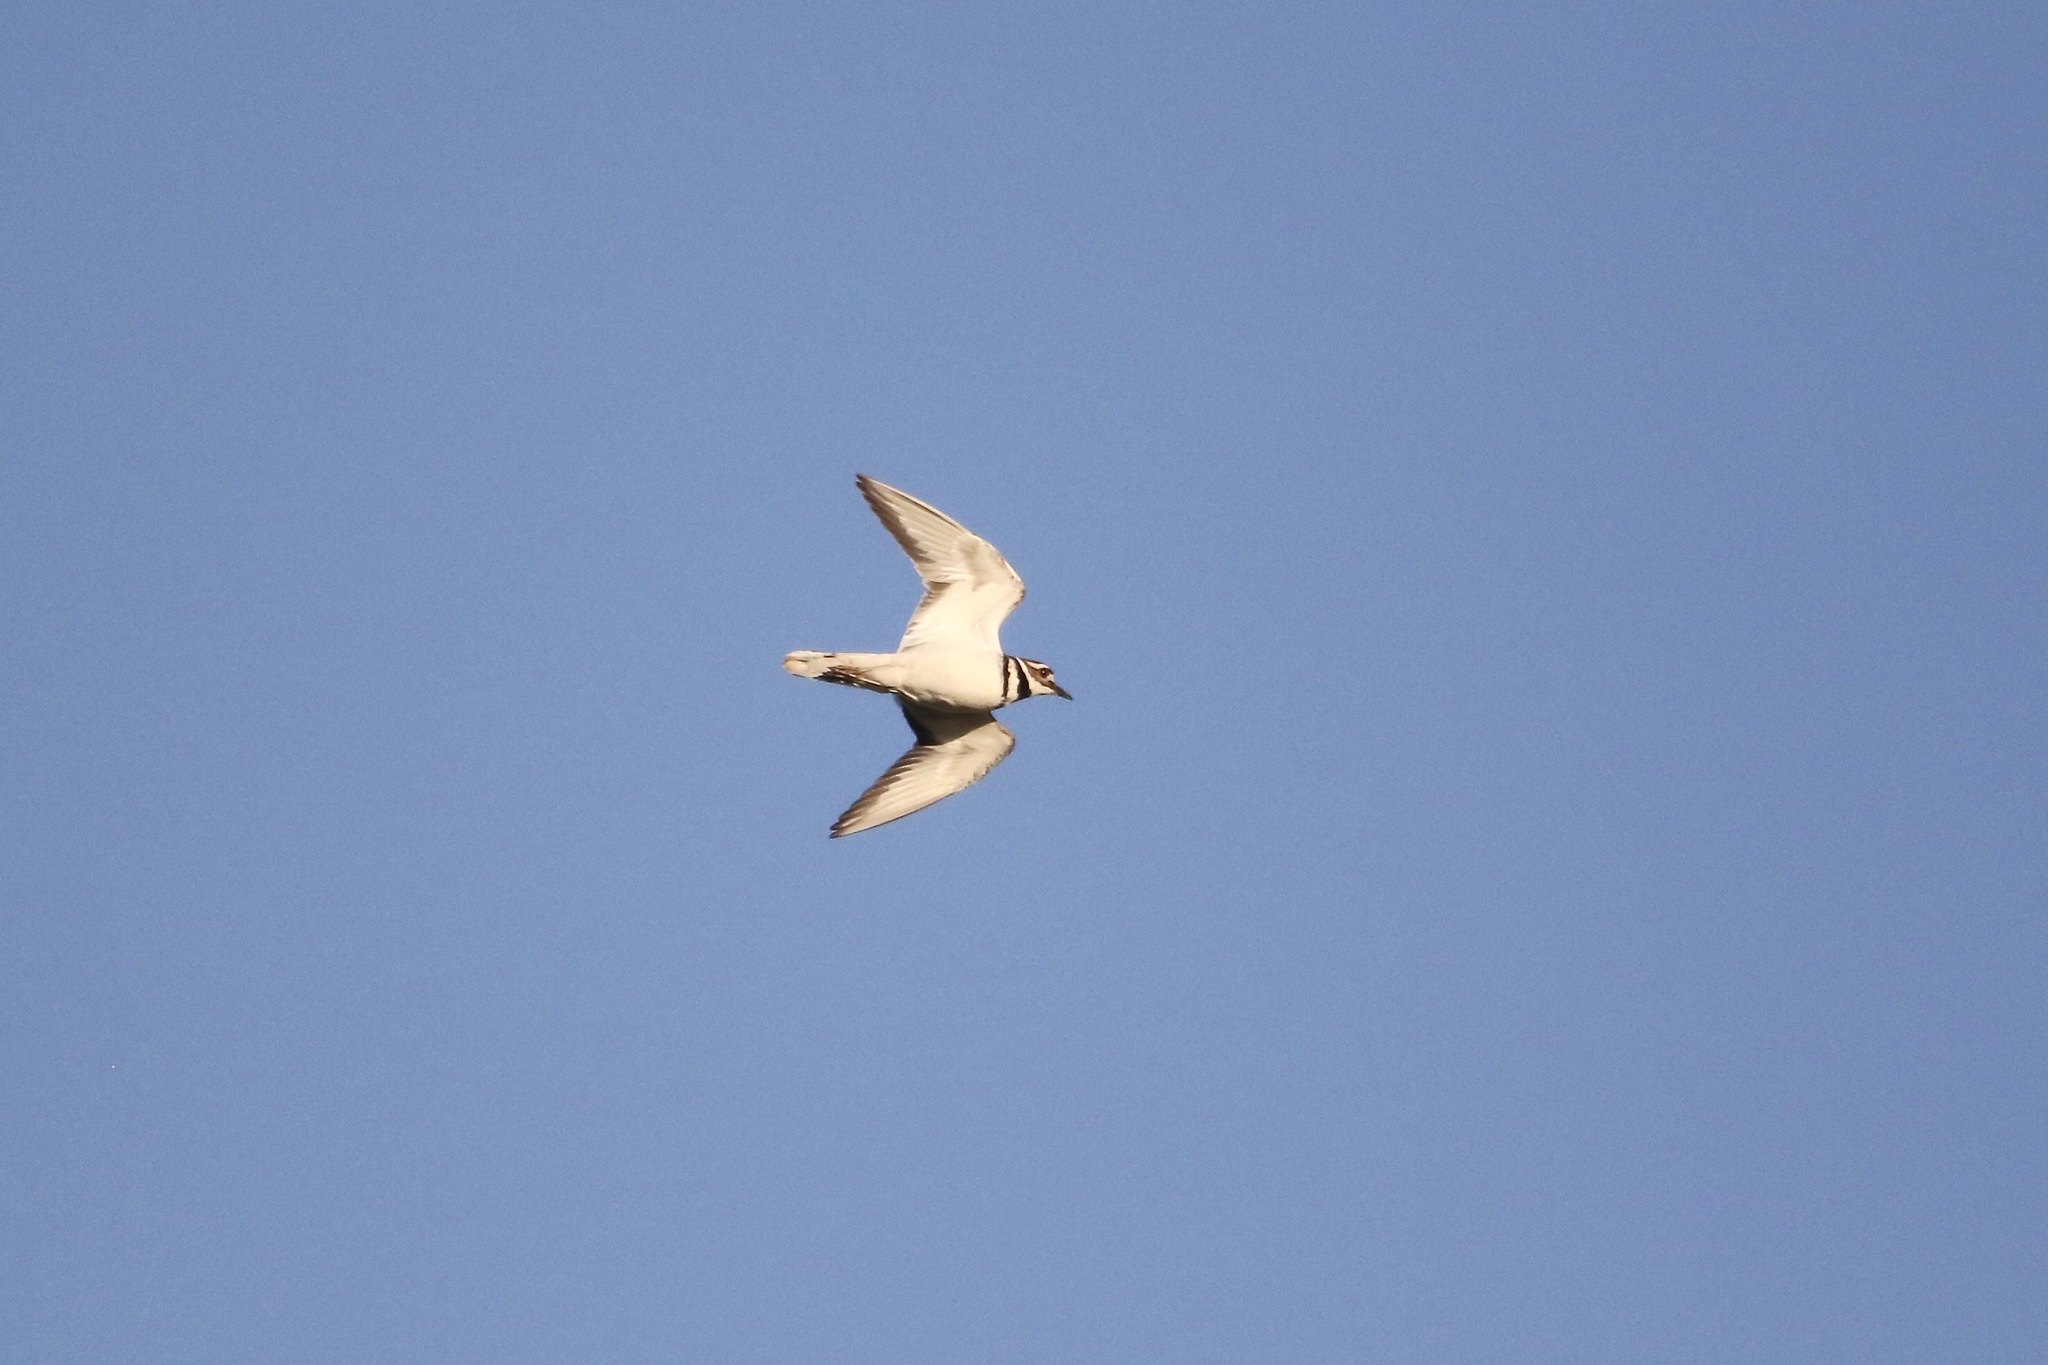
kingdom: Animalia
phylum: Chordata
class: Aves
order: Charadriiformes
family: Charadriidae
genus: Charadrius
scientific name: Charadrius vociferus
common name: Killdeer
